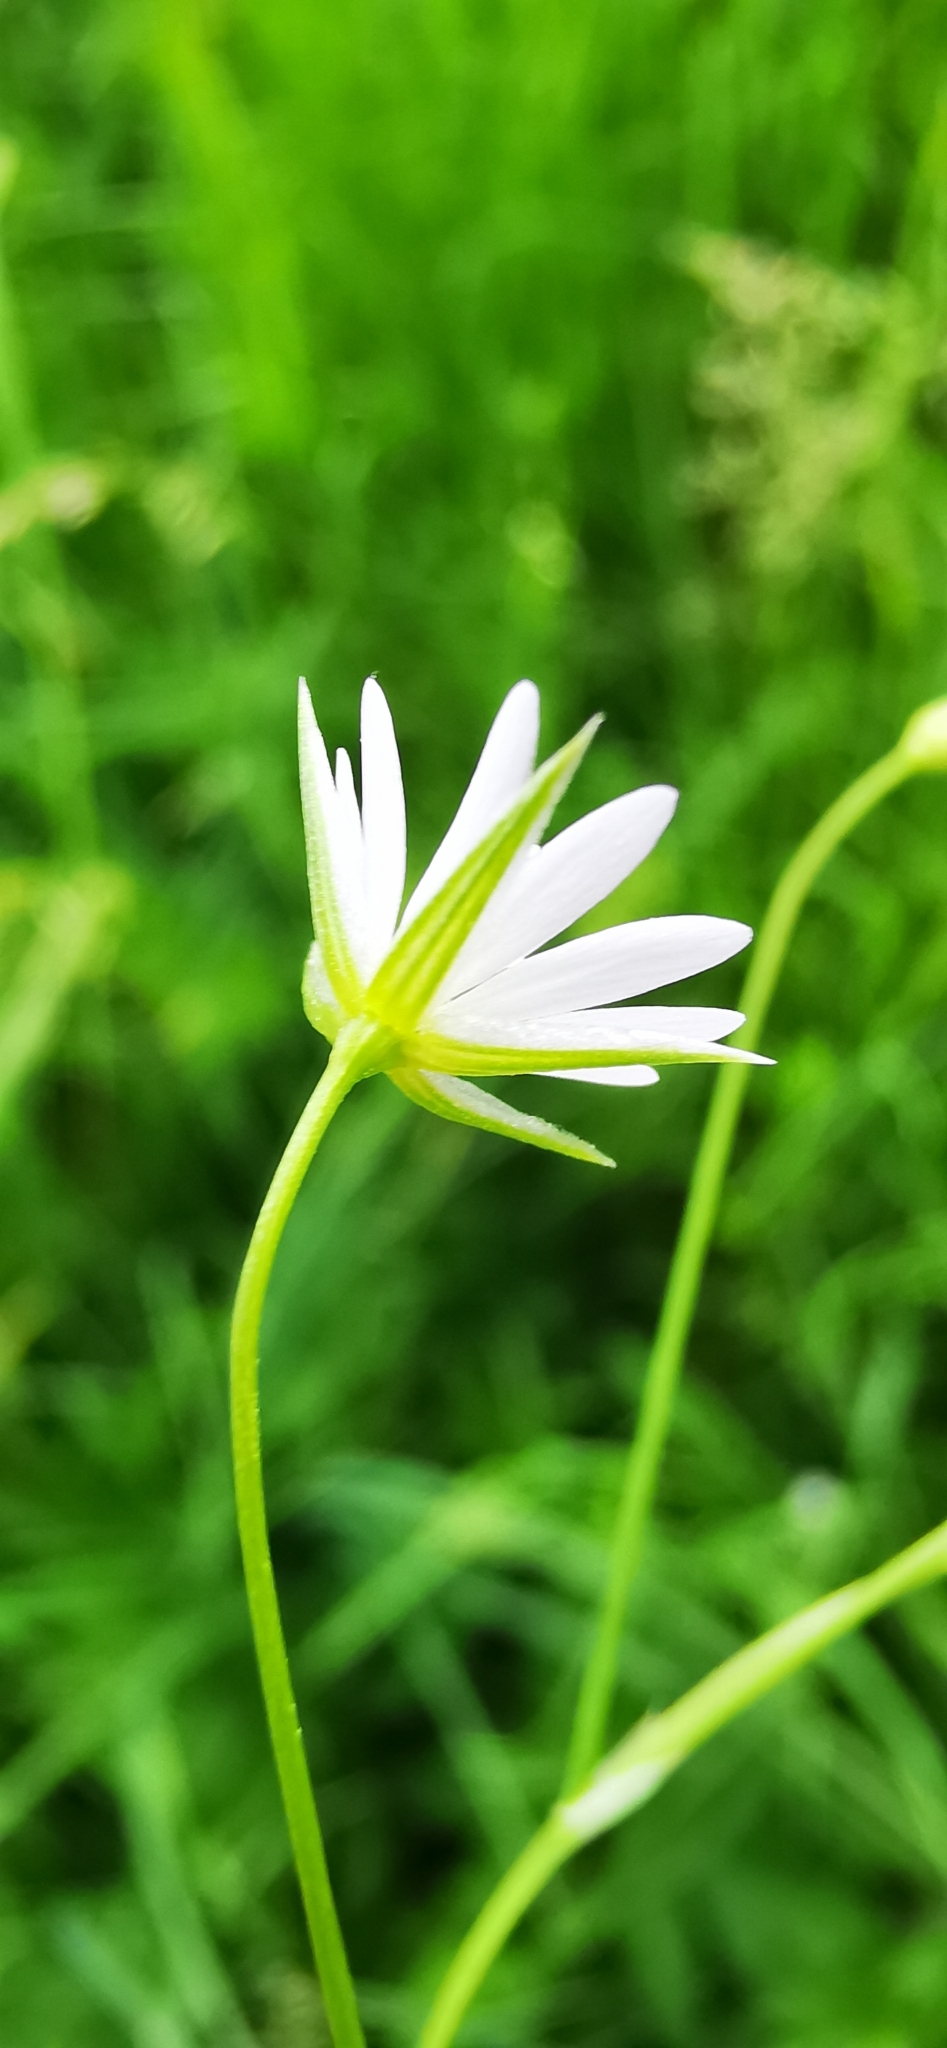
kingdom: Plantae
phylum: Tracheophyta
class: Magnoliopsida
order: Caryophyllales
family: Caryophyllaceae
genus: Stellaria
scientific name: Stellaria graminea
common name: Grass-like starwort
